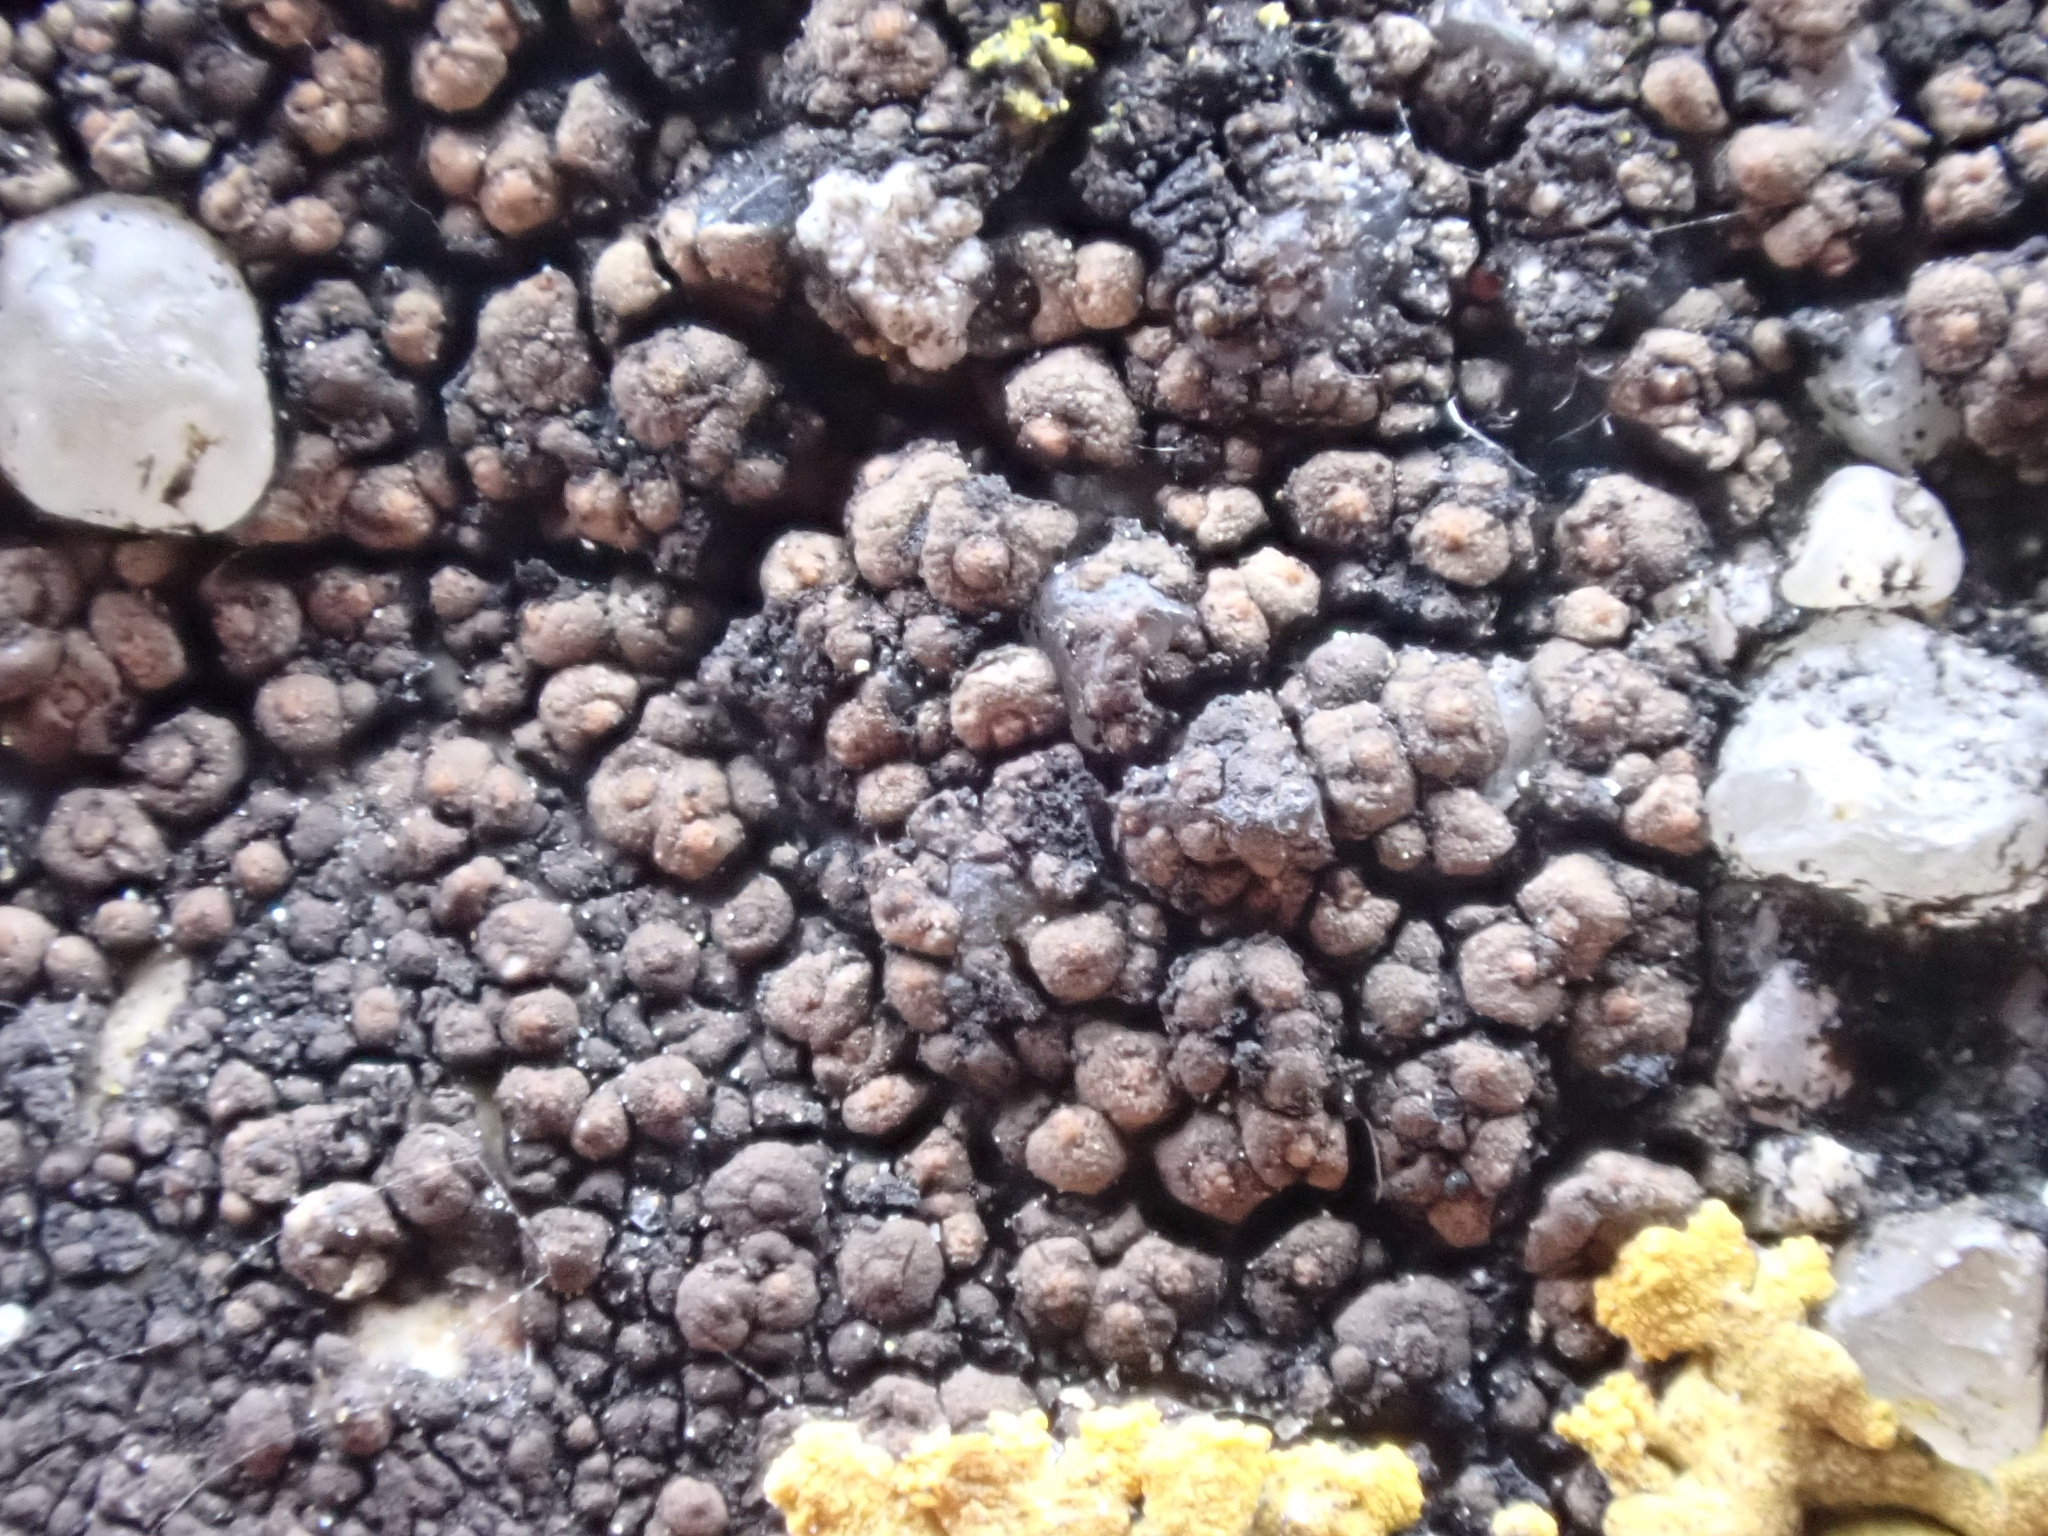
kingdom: Fungi
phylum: Ascomycota
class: Eurotiomycetes
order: Verrucariales
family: Verrucariaceae
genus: Staurothele
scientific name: Staurothele frustulenta
